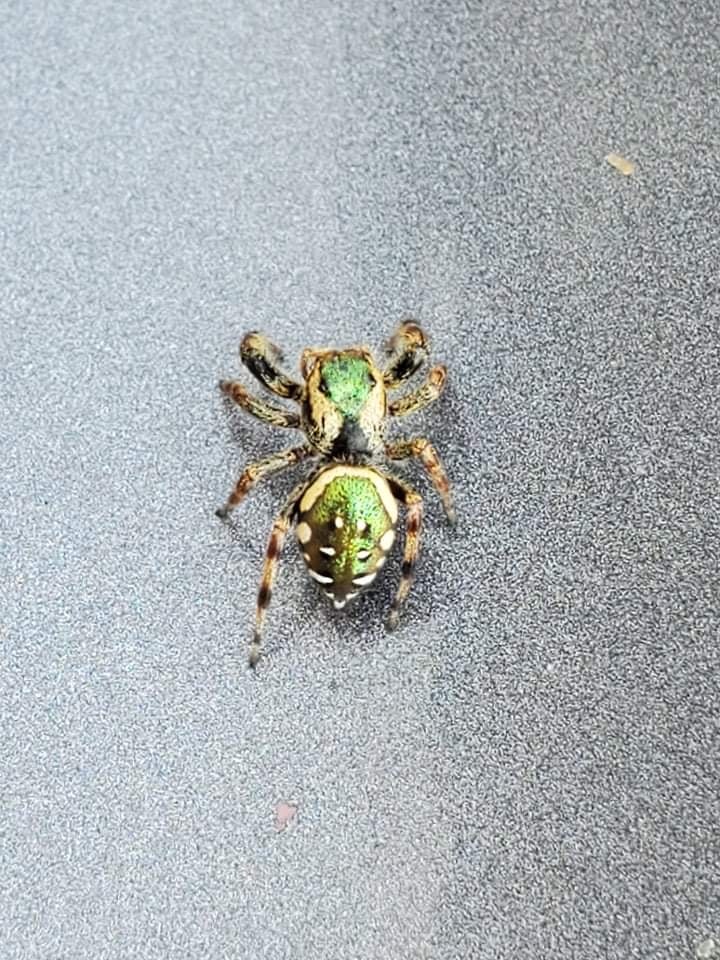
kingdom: Animalia
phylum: Arthropoda
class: Arachnida
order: Araneae
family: Salticidae
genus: Paraphidippus
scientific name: Paraphidippus aurantius
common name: Jumping spiders
